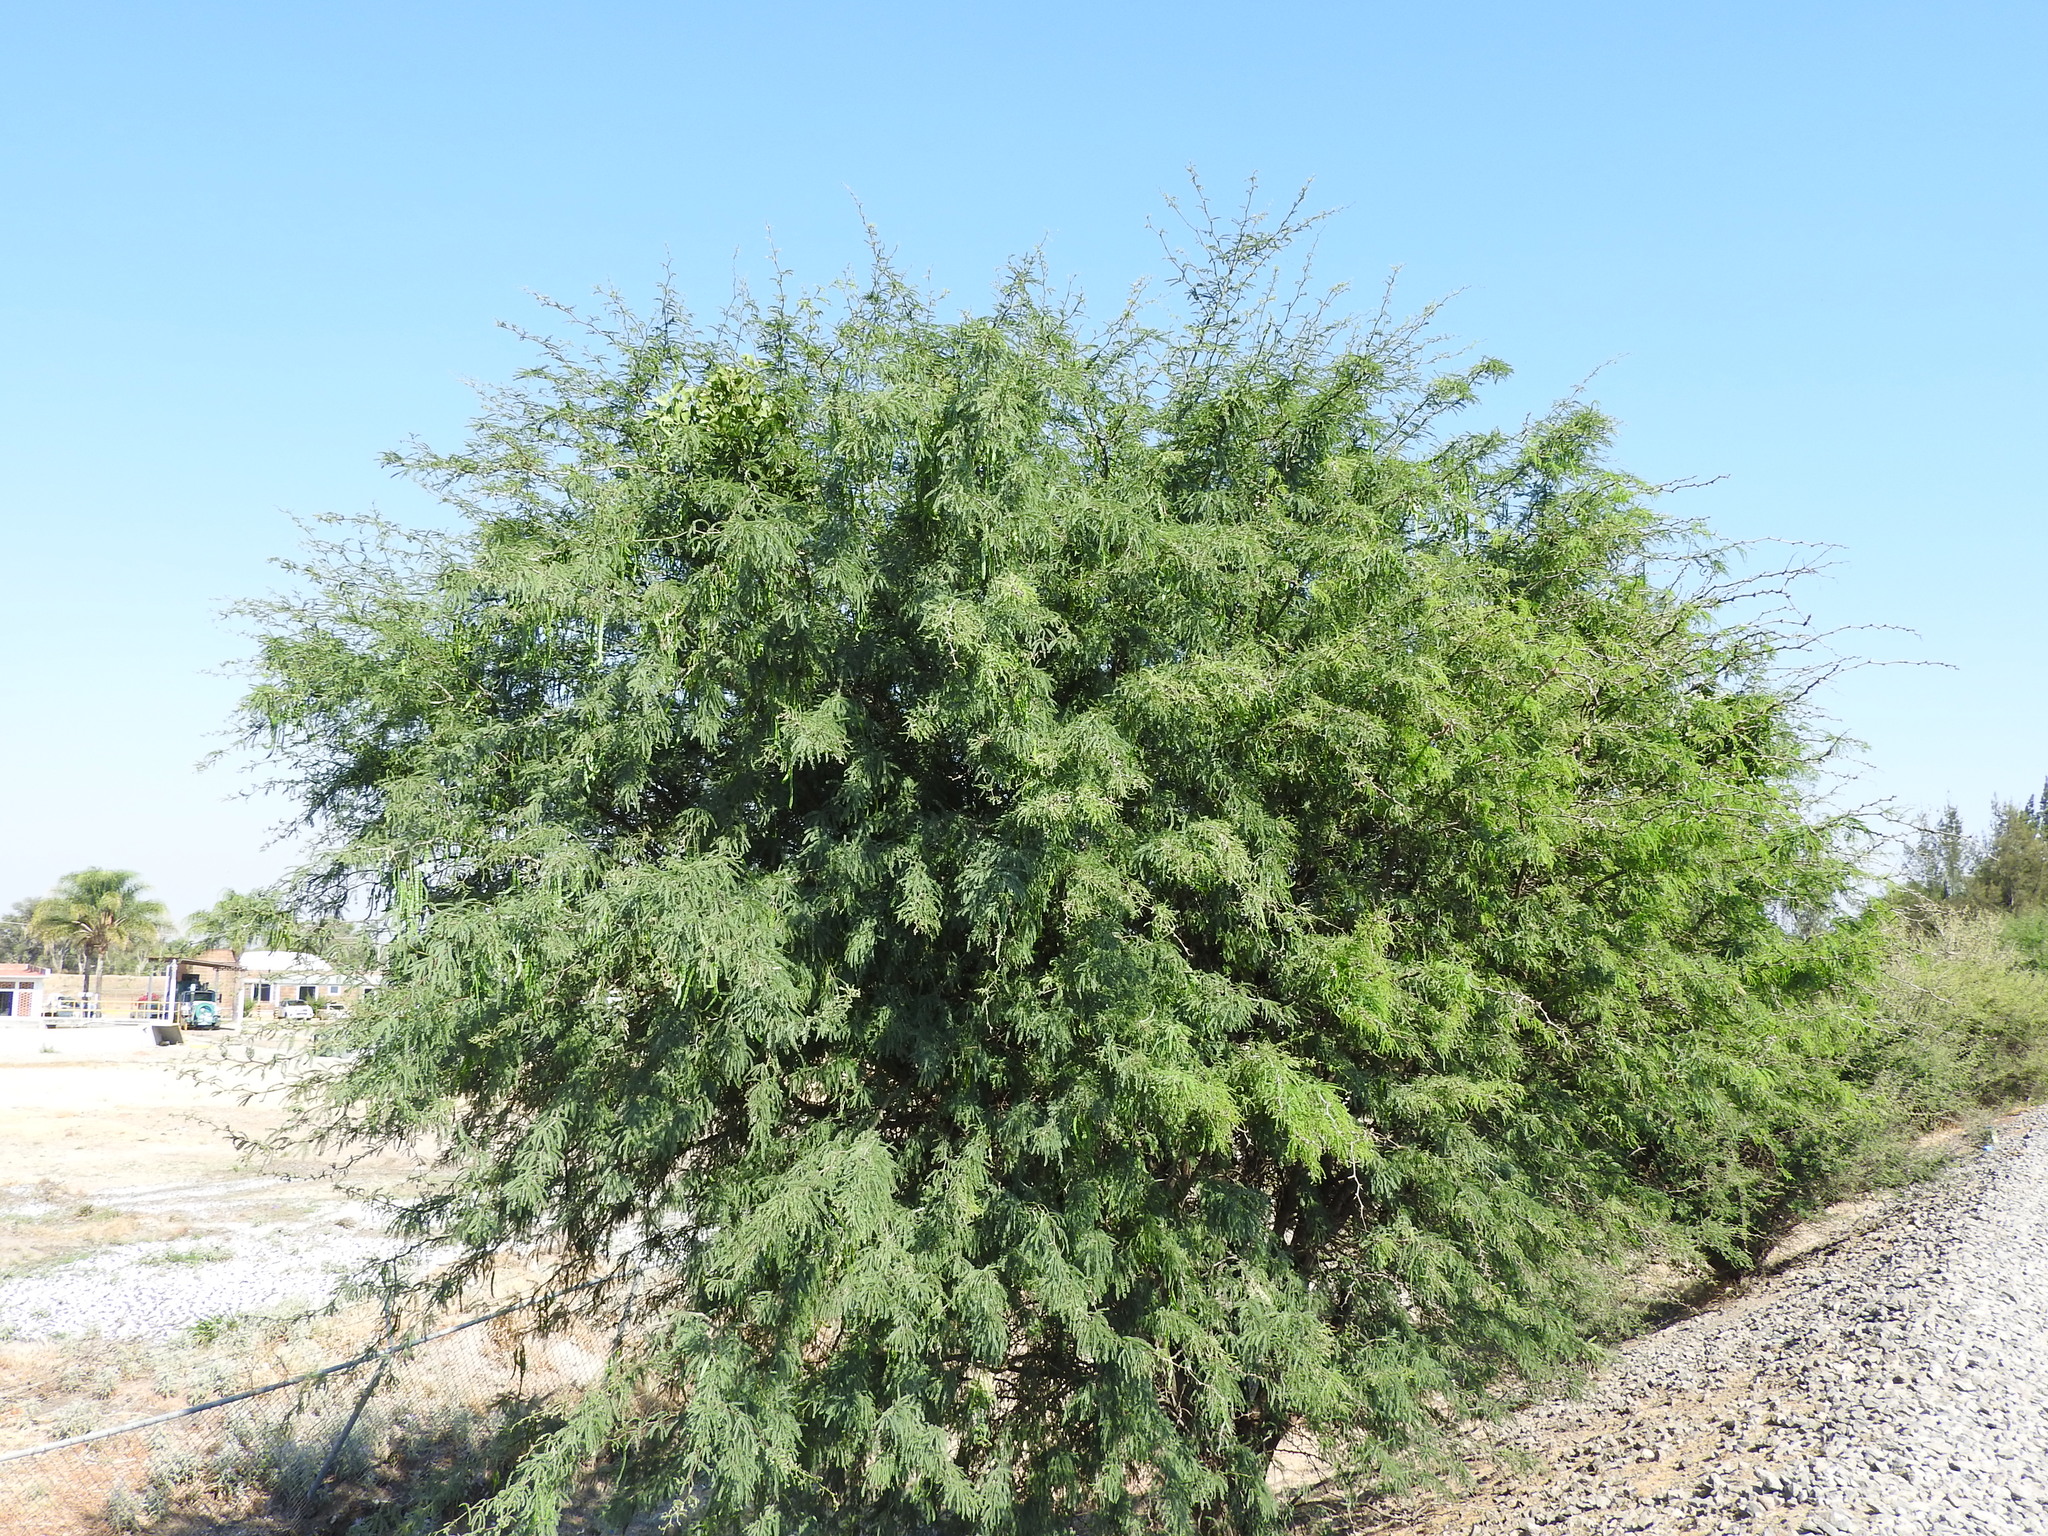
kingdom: Plantae
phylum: Tracheophyta
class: Magnoliopsida
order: Fabales
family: Fabaceae
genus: Prosopis
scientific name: Prosopis laevigata
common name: Smooth mesquite
